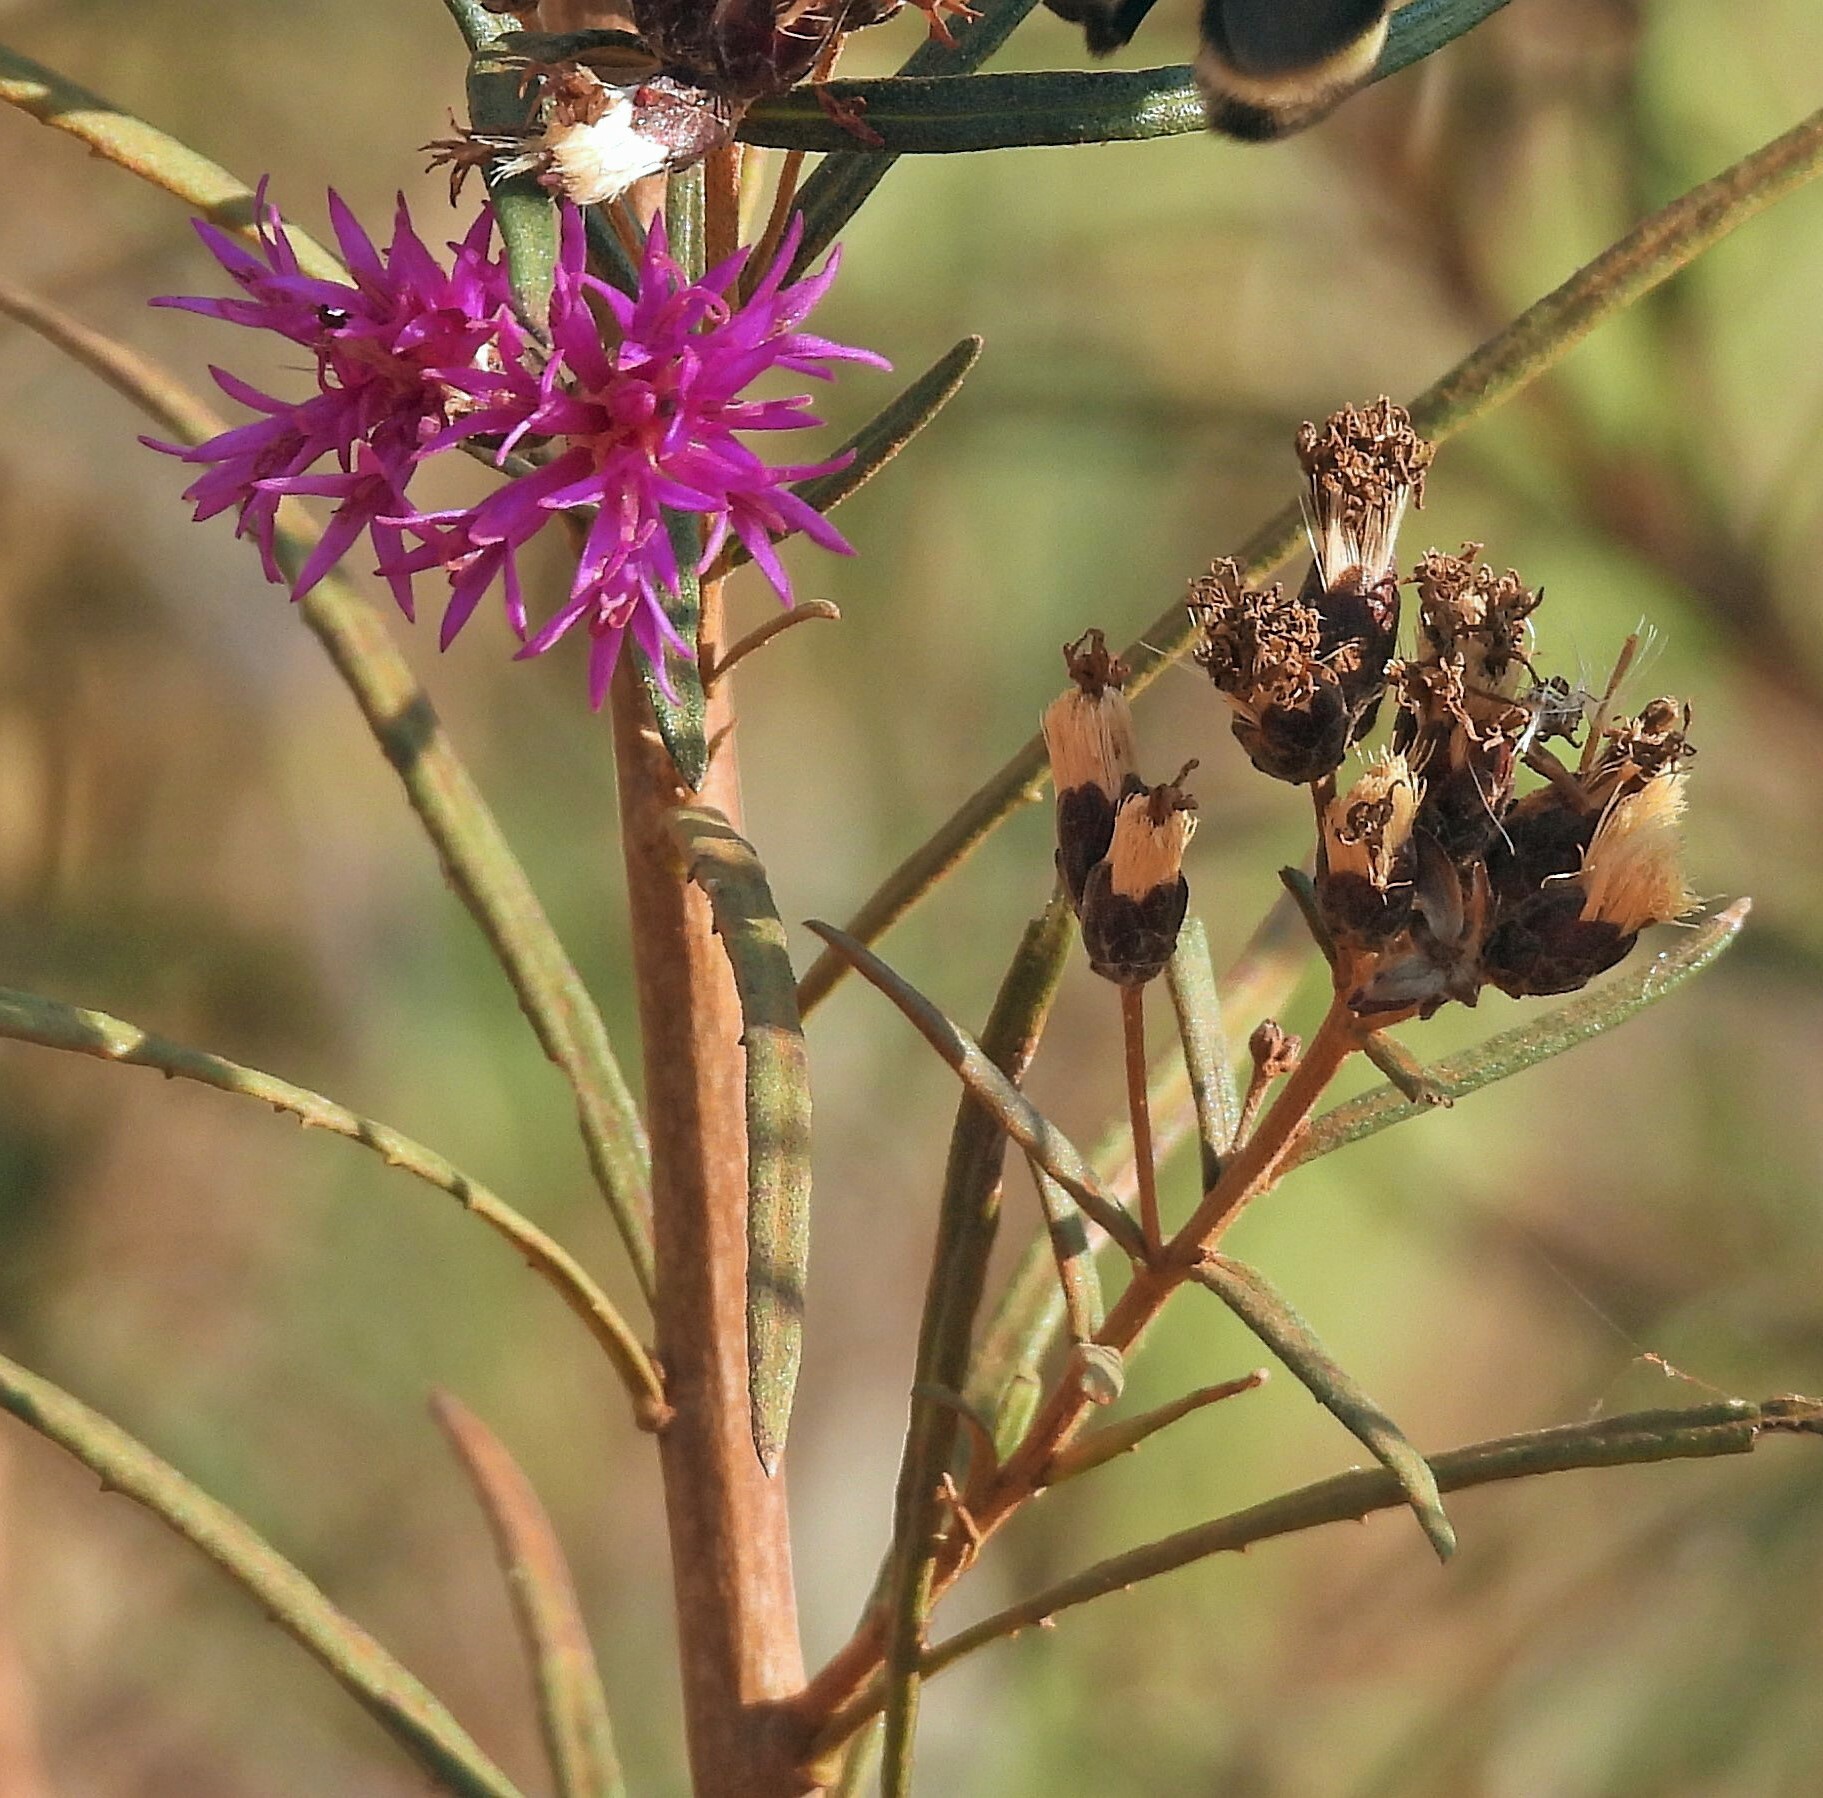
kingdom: Plantae
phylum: Tracheophyta
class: Magnoliopsida
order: Asterales
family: Asteraceae
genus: Vernonanthura
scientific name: Vernonanthura nudiflora
